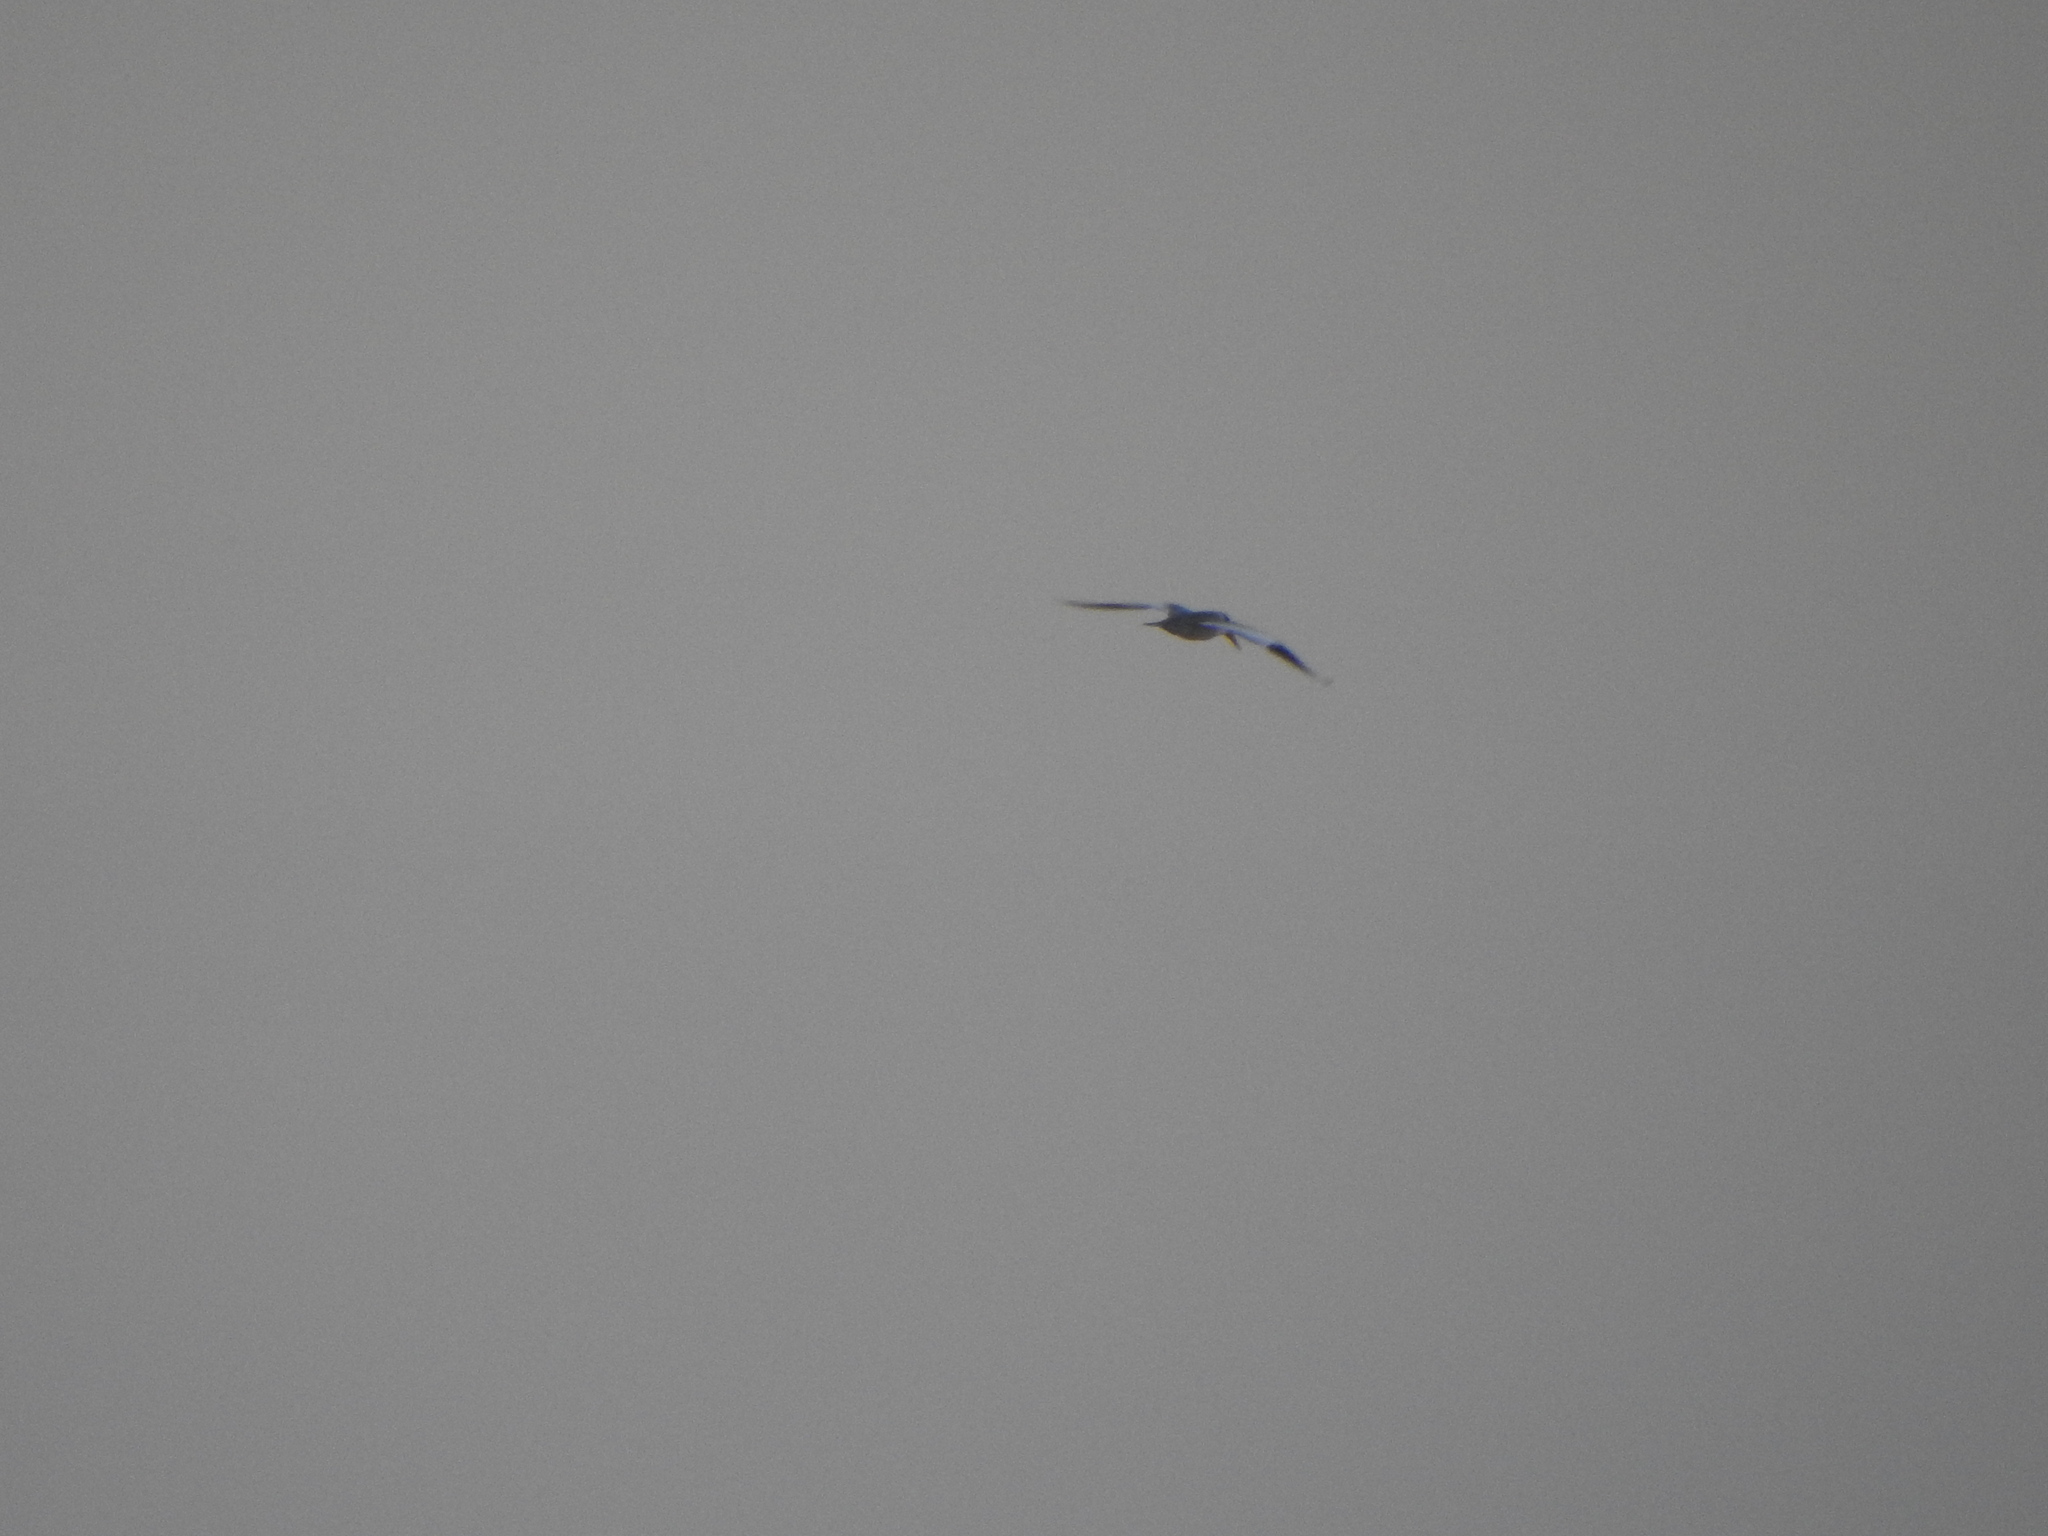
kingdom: Animalia
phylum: Chordata
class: Aves
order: Charadriiformes
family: Laridae
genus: Phaetusa
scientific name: Phaetusa simplex
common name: Large-billed tern
